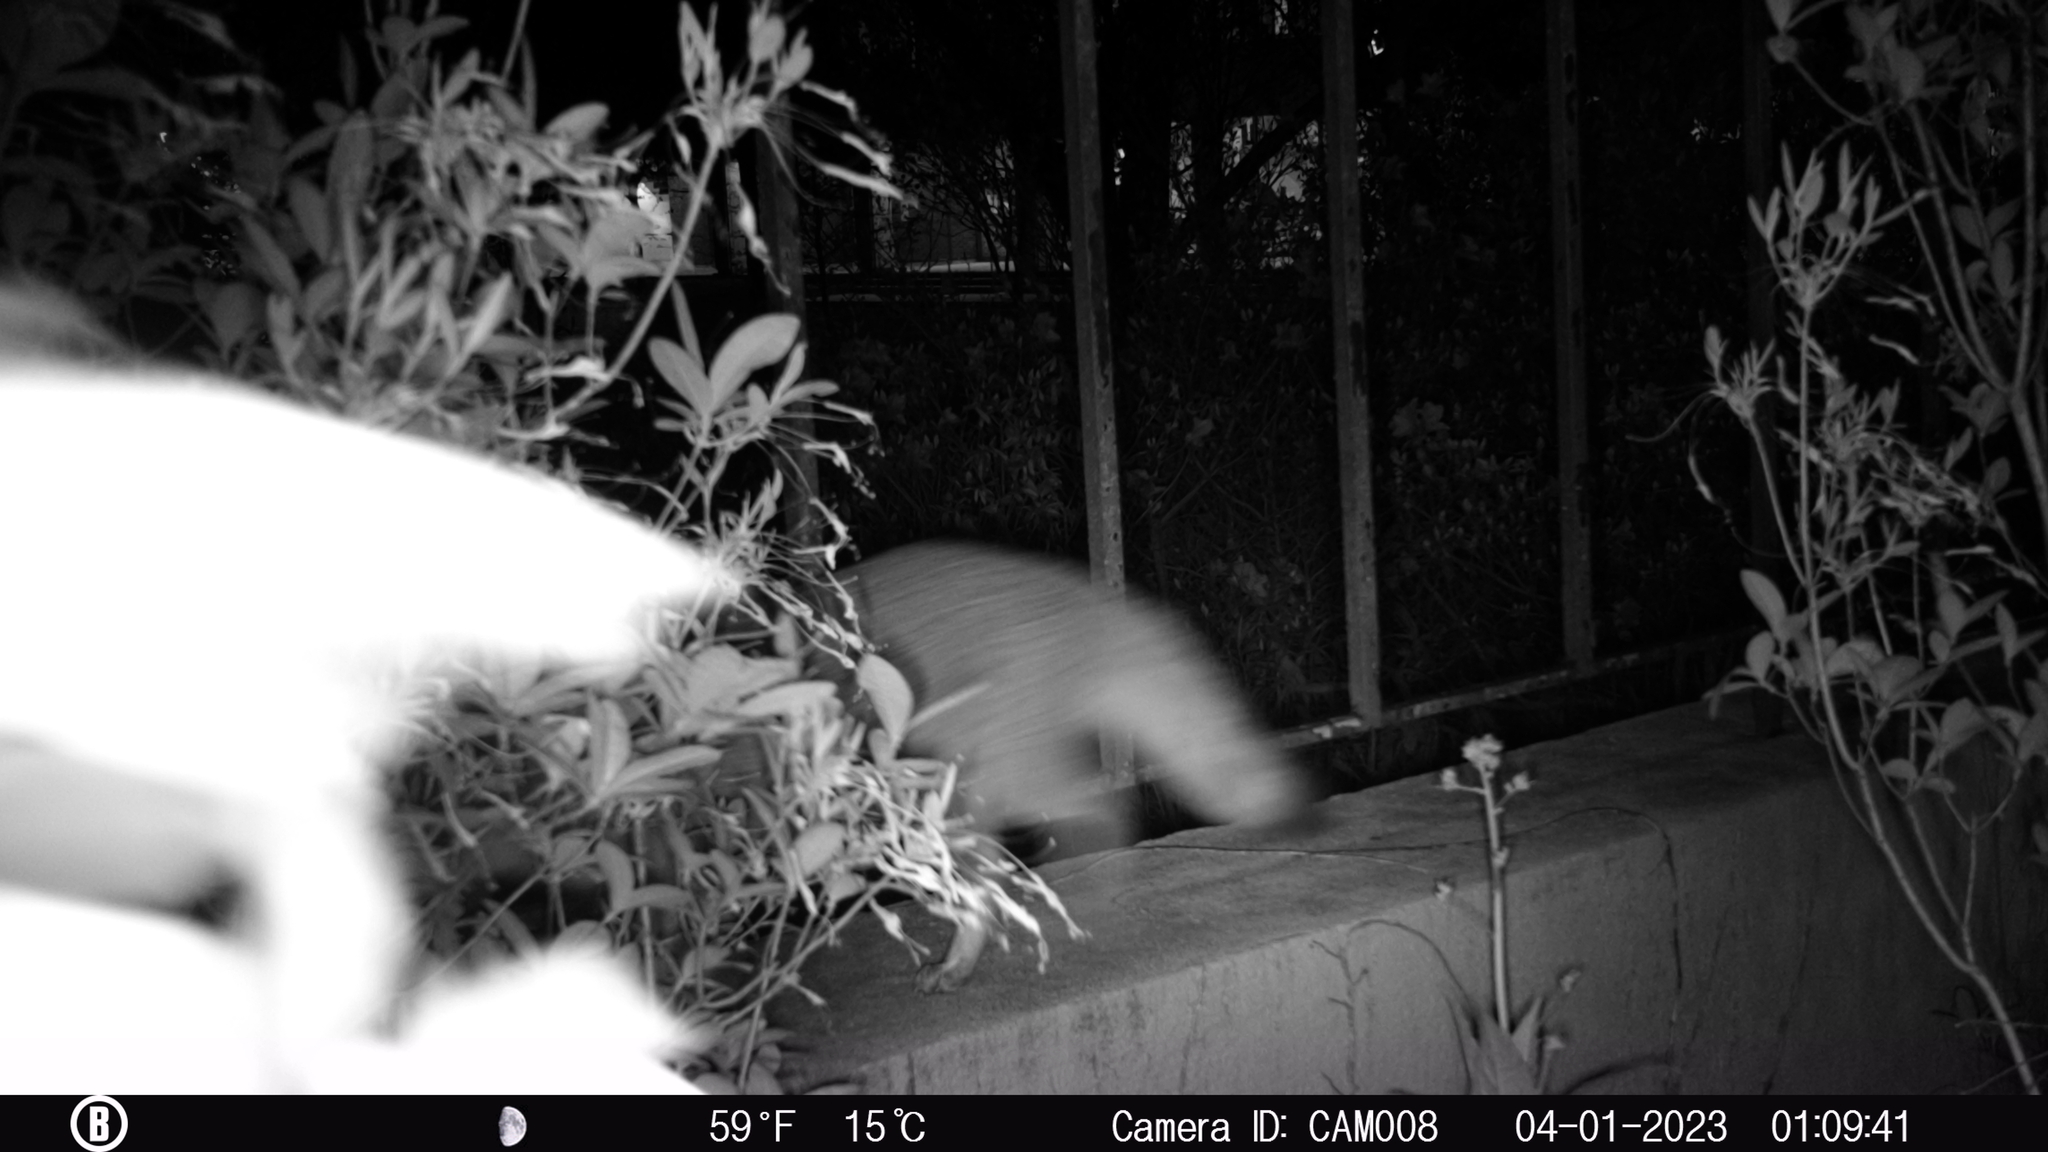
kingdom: Animalia
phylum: Chordata
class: Mammalia
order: Carnivora
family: Canidae
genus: Urocyon
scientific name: Urocyon cinereoargenteus
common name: Gray fox
